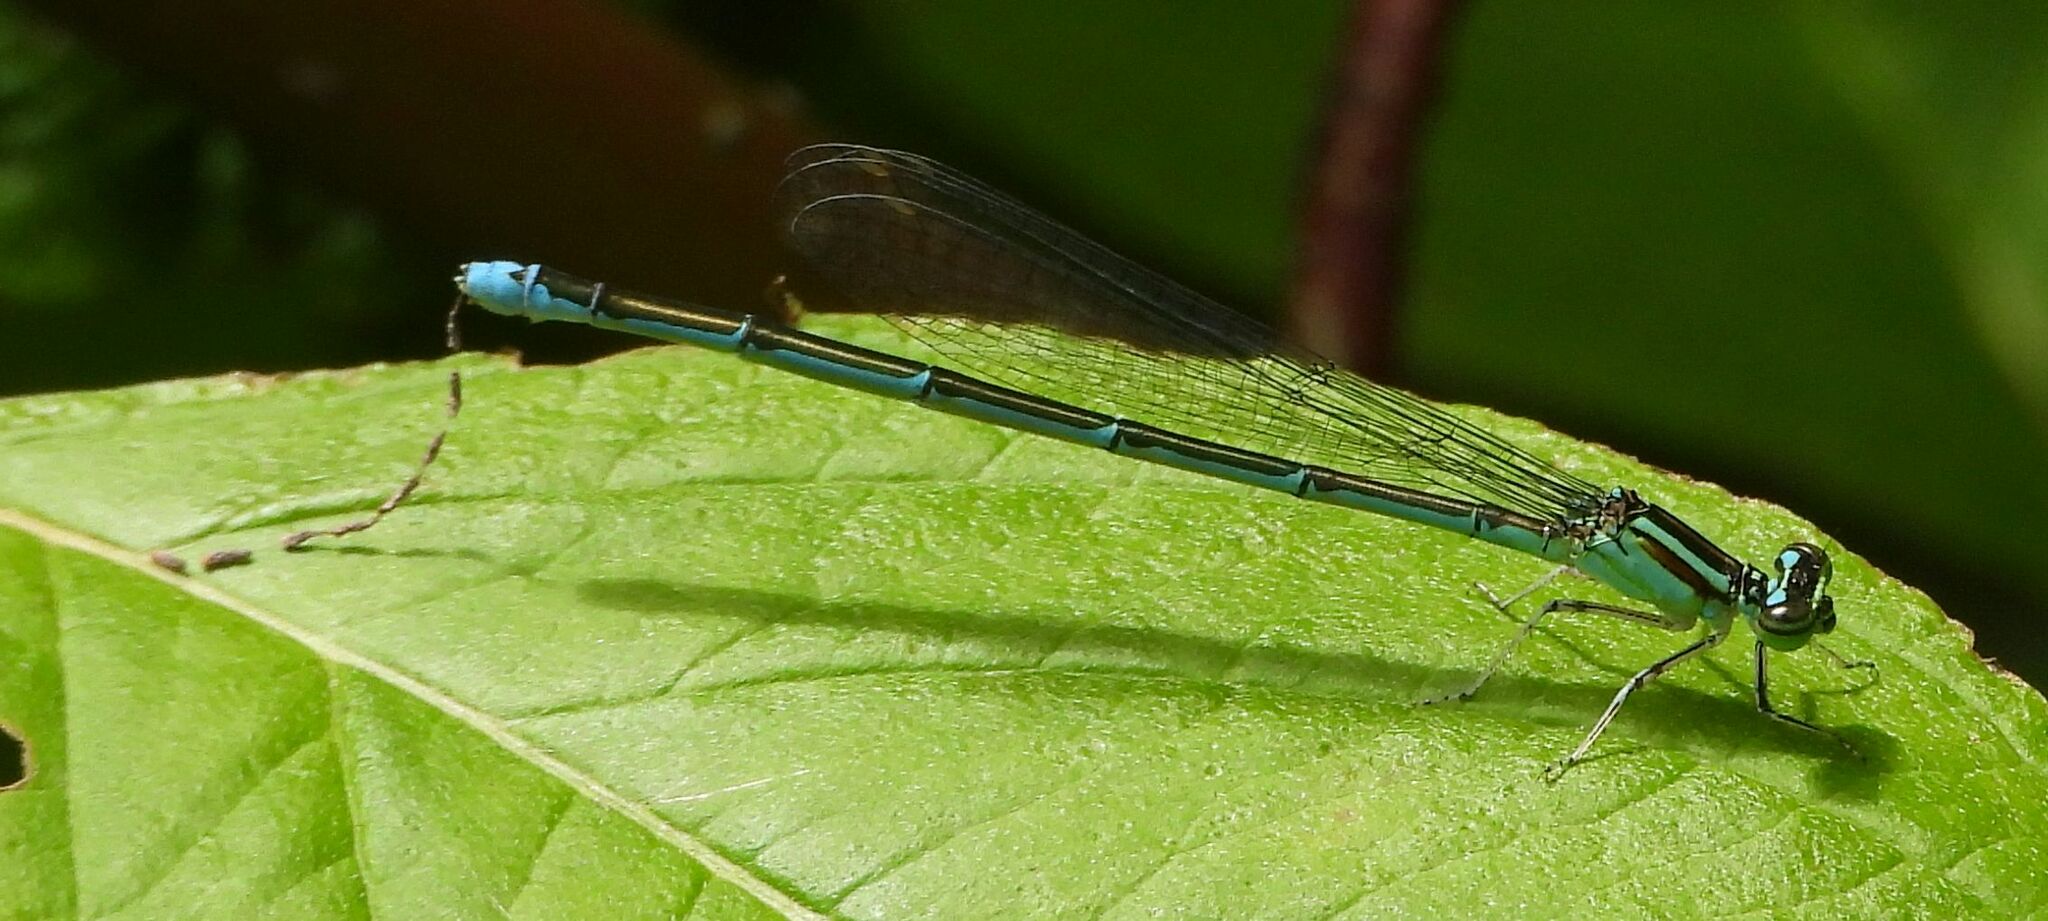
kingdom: Animalia
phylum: Arthropoda
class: Insecta
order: Odonata
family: Coenagrionidae
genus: Enallagma
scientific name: Enallagma exsulans
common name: Stream bluet
